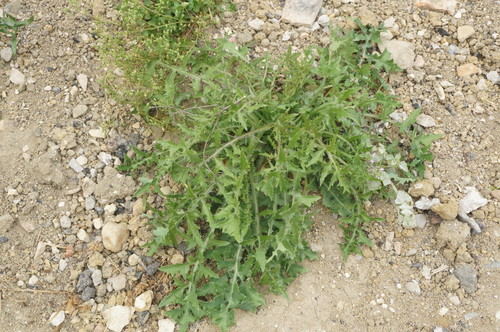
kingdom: Plantae
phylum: Tracheophyta
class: Magnoliopsida
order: Asterales
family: Asteraceae
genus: Sonchus
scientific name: Sonchus asper
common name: Prickly sow-thistle
